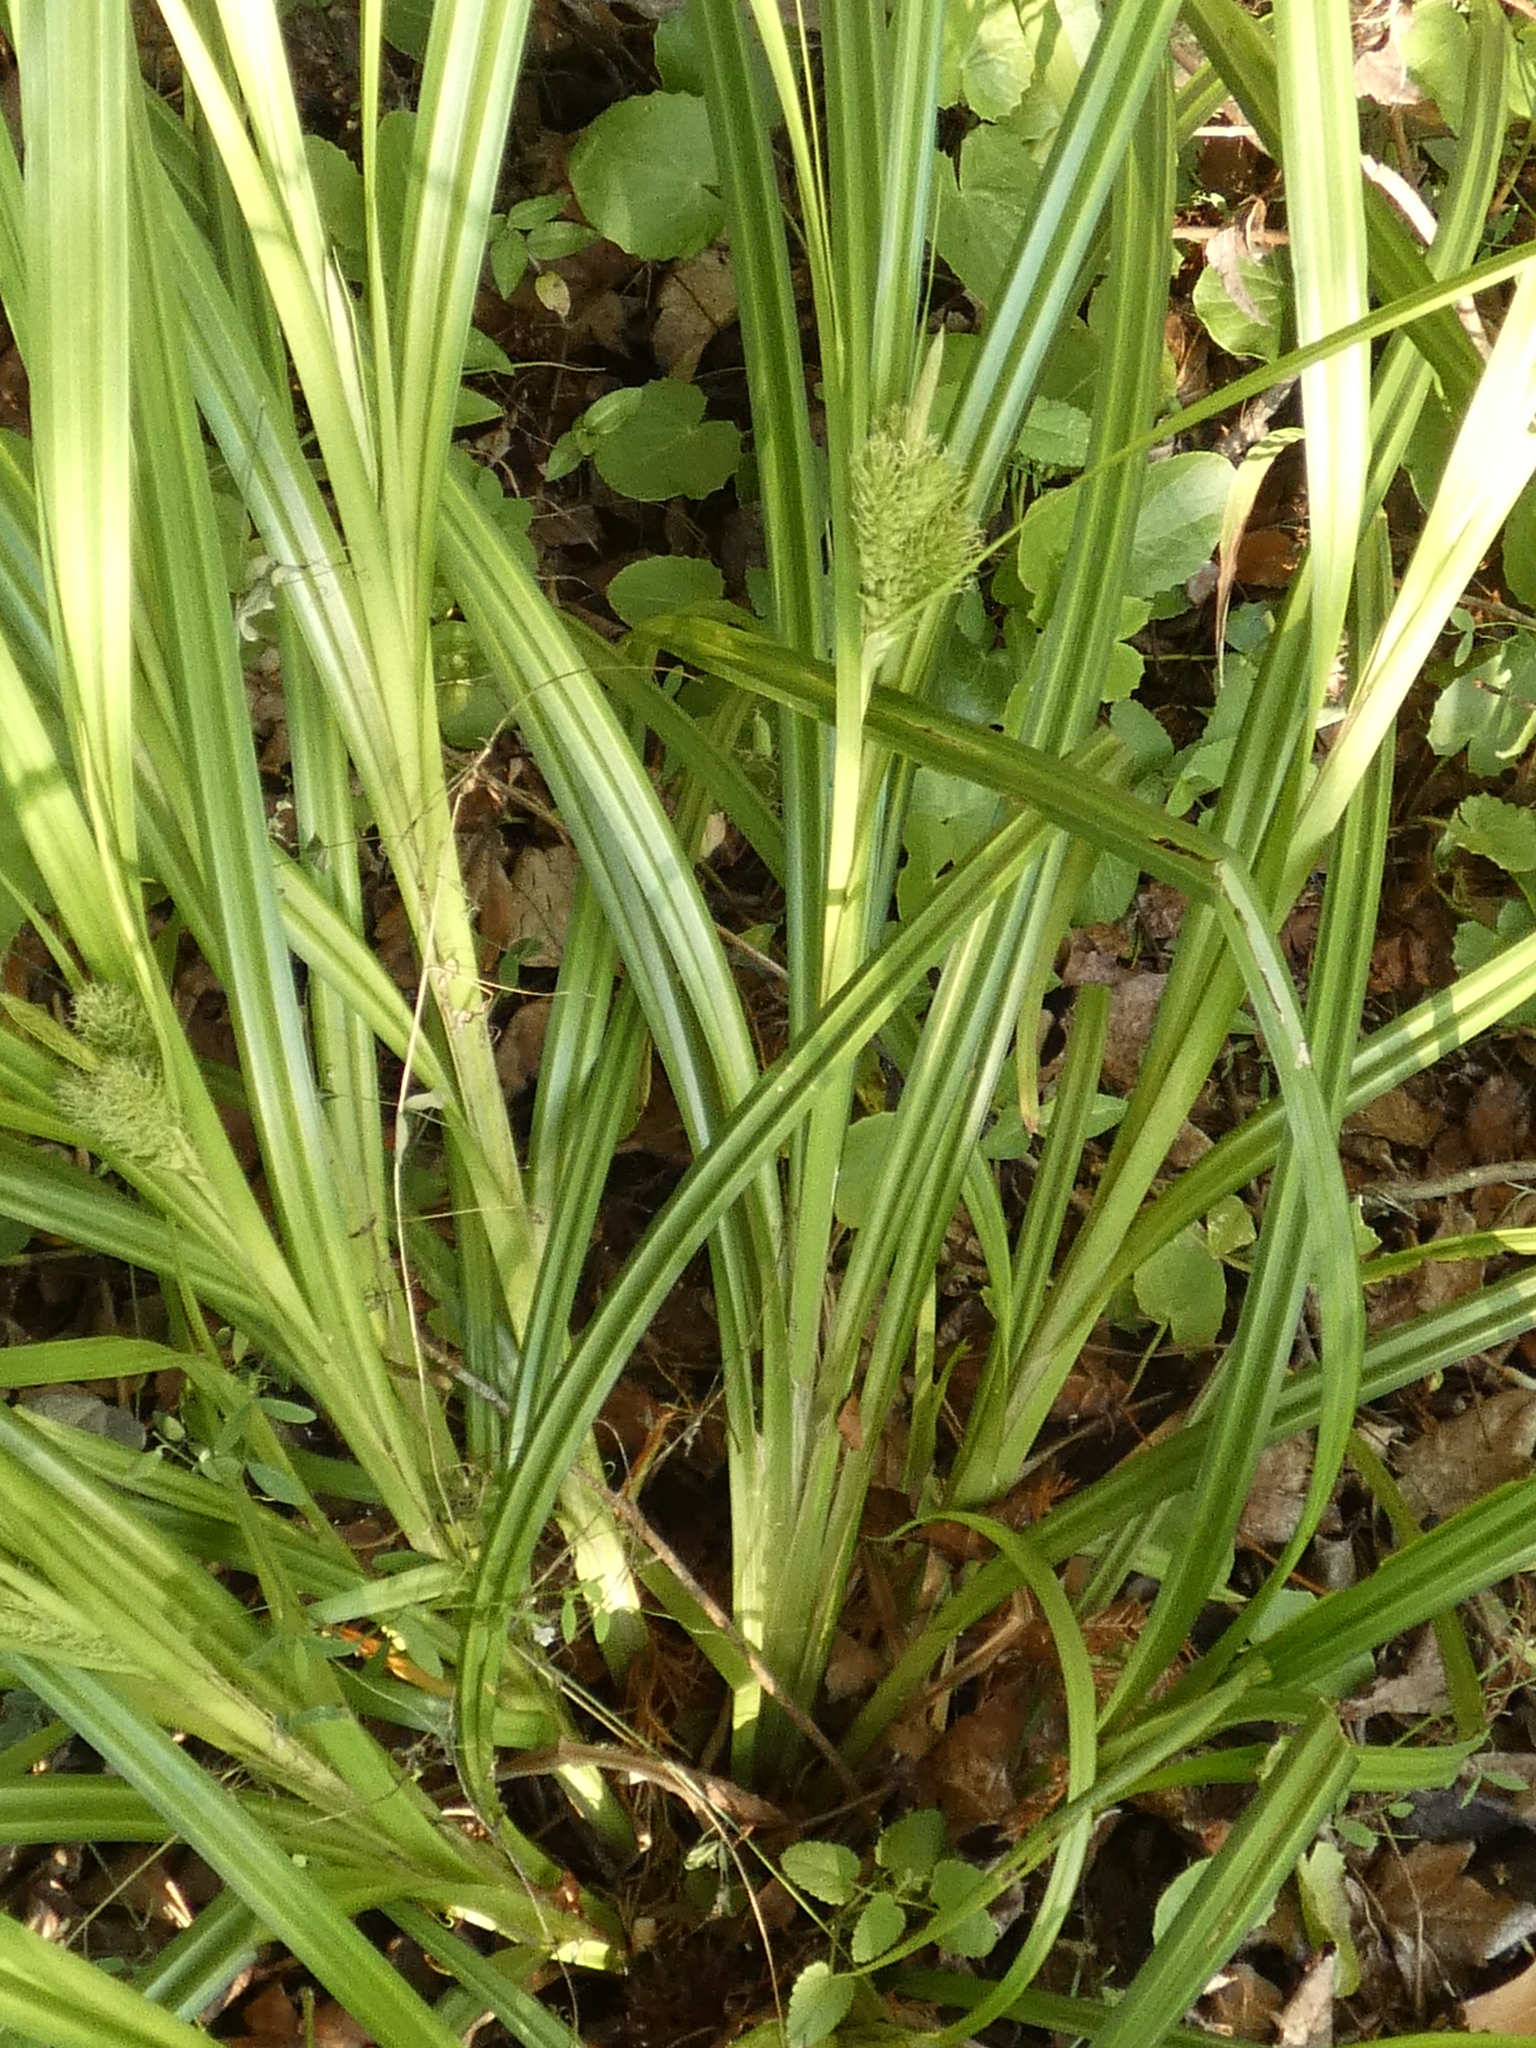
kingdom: Plantae
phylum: Tracheophyta
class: Liliopsida
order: Poales
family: Cyperaceae
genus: Carex
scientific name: Carex lupuliformis
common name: False hop sedge
